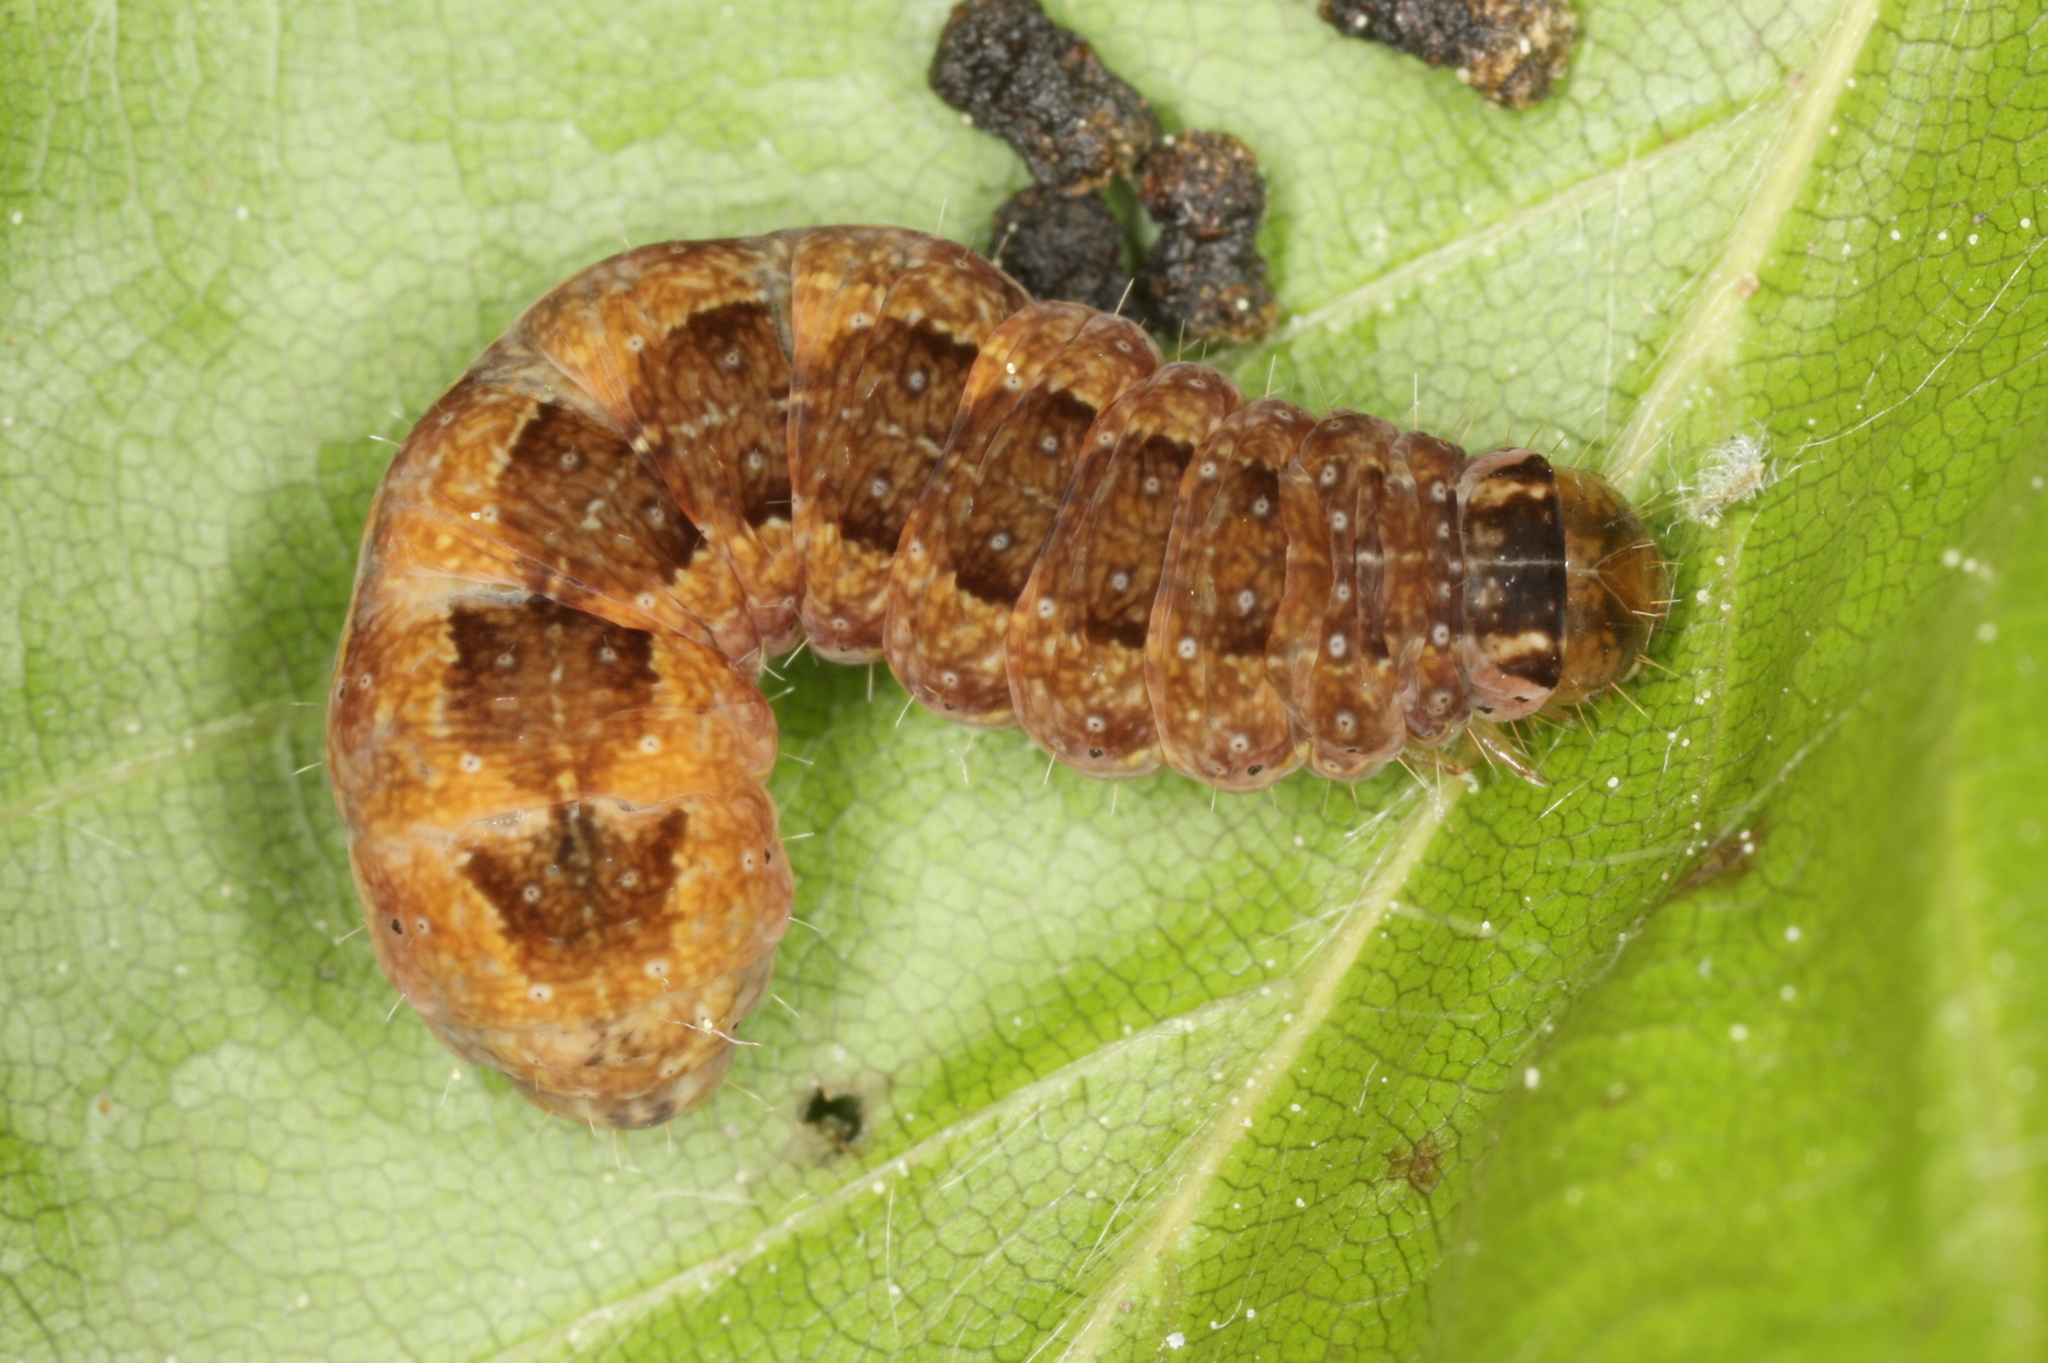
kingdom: Animalia
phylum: Arthropoda
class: Insecta
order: Lepidoptera
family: Noctuidae
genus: Sunira
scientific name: Sunira circellaris
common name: Brick
